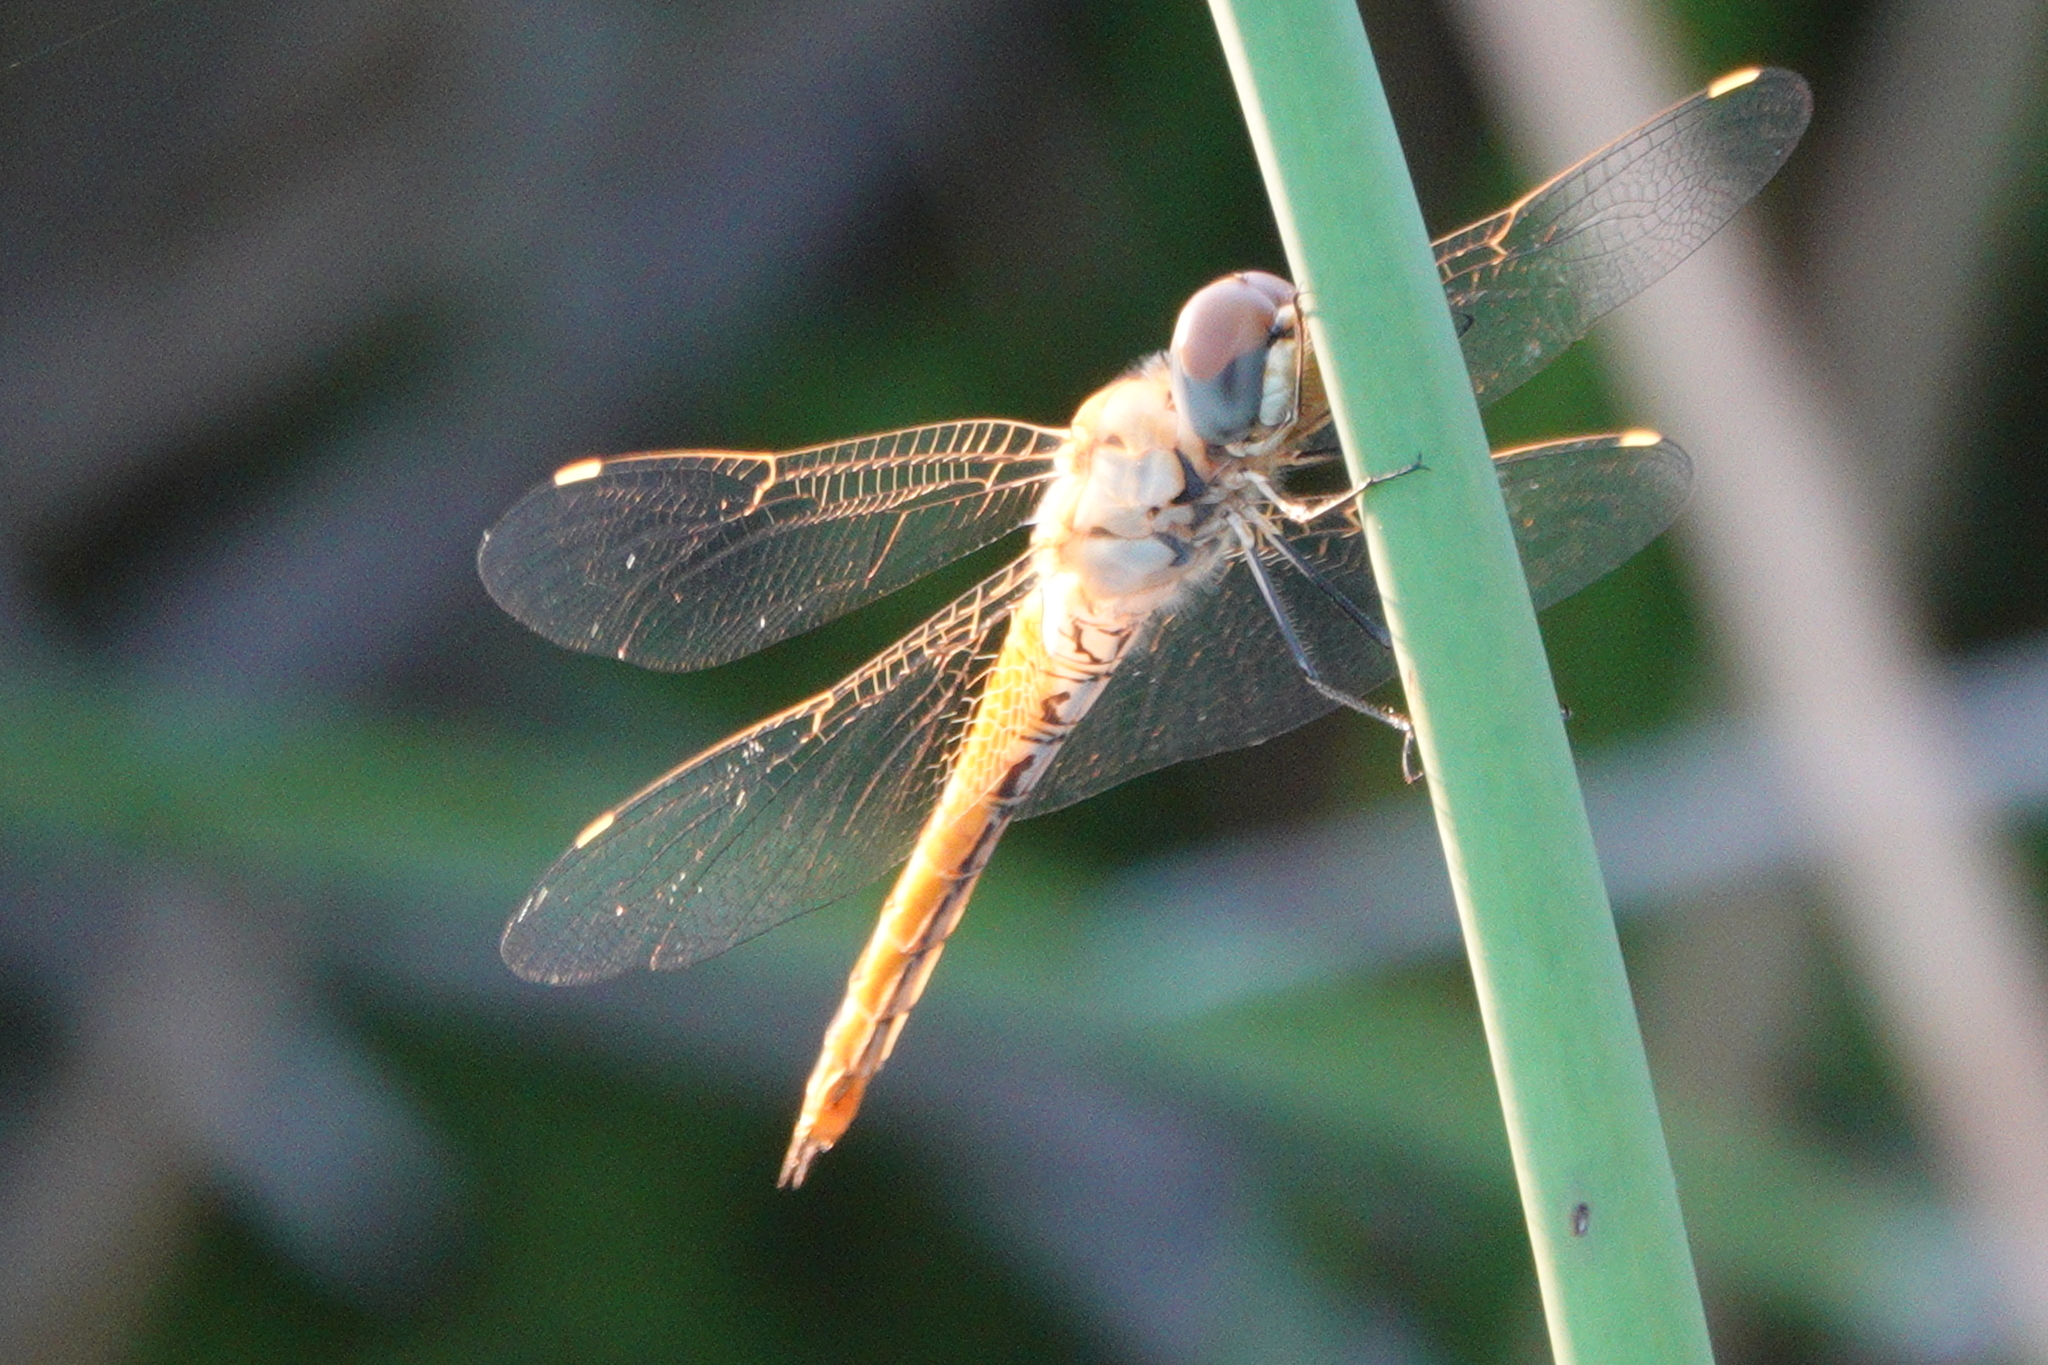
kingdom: Animalia
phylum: Arthropoda
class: Insecta
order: Odonata
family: Libellulidae
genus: Pantala
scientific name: Pantala flavescens
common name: Wandering glider
